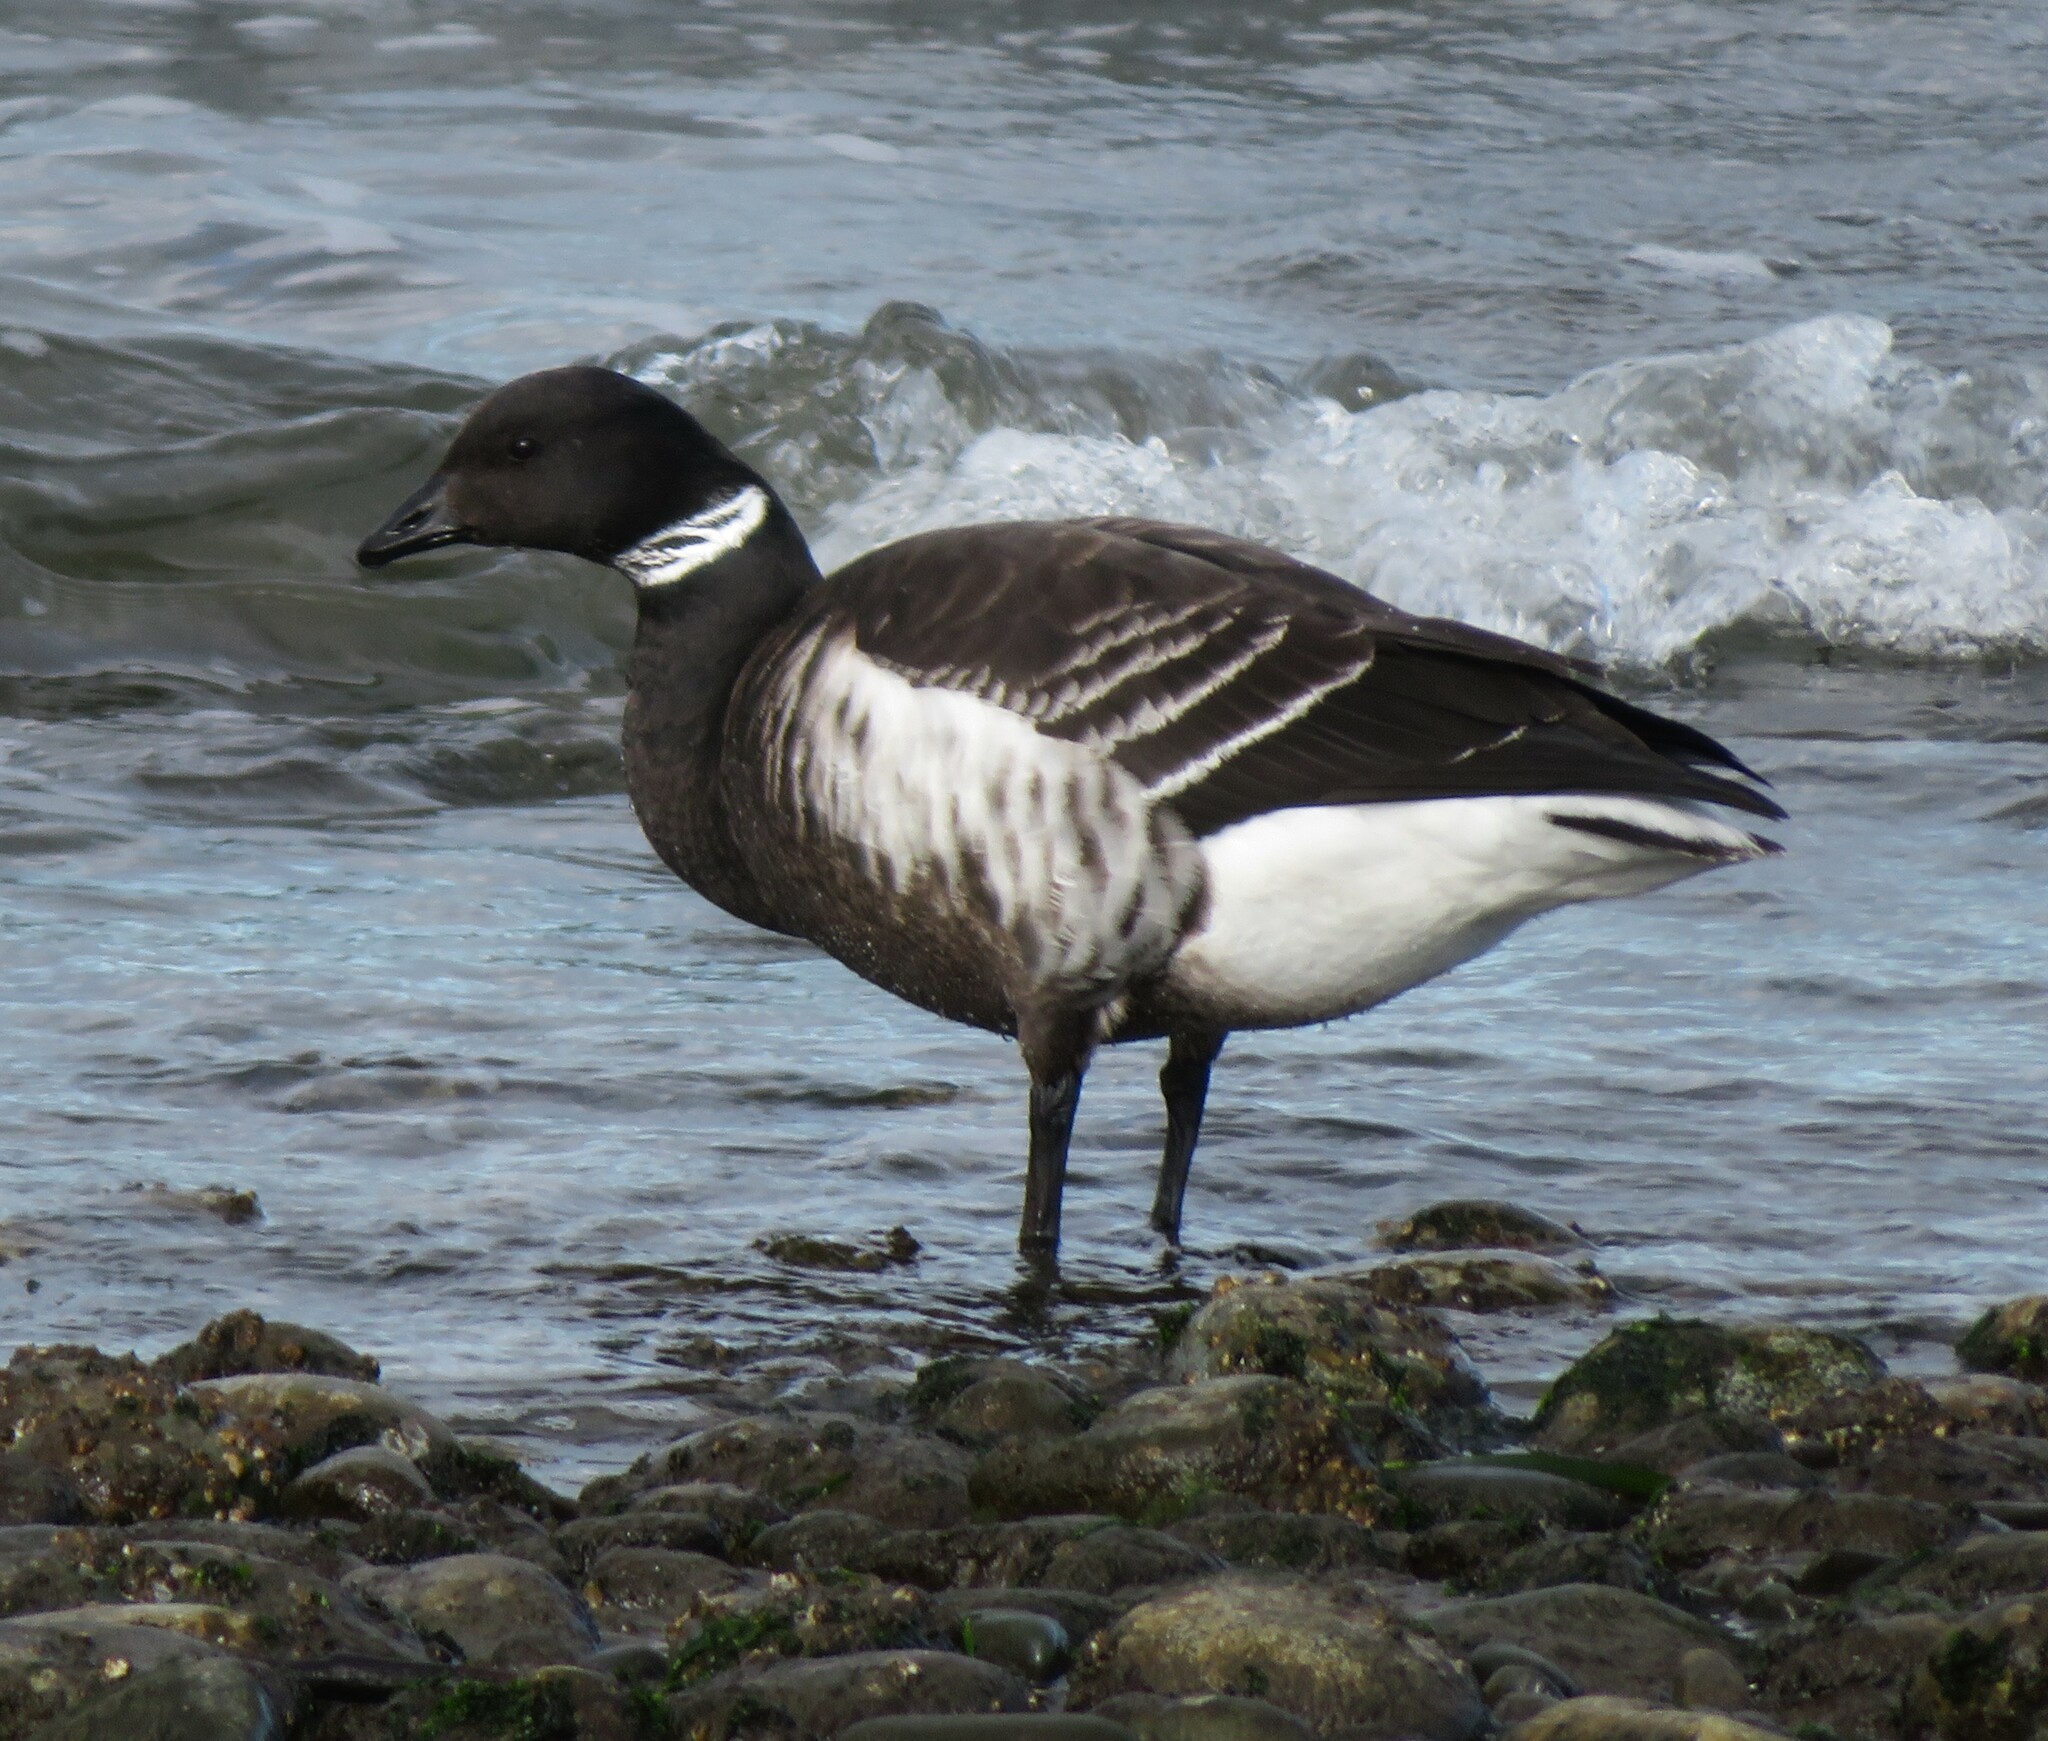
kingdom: Animalia
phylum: Chordata
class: Aves
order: Anseriformes
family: Anatidae
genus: Branta
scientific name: Branta bernicla
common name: Brant goose
